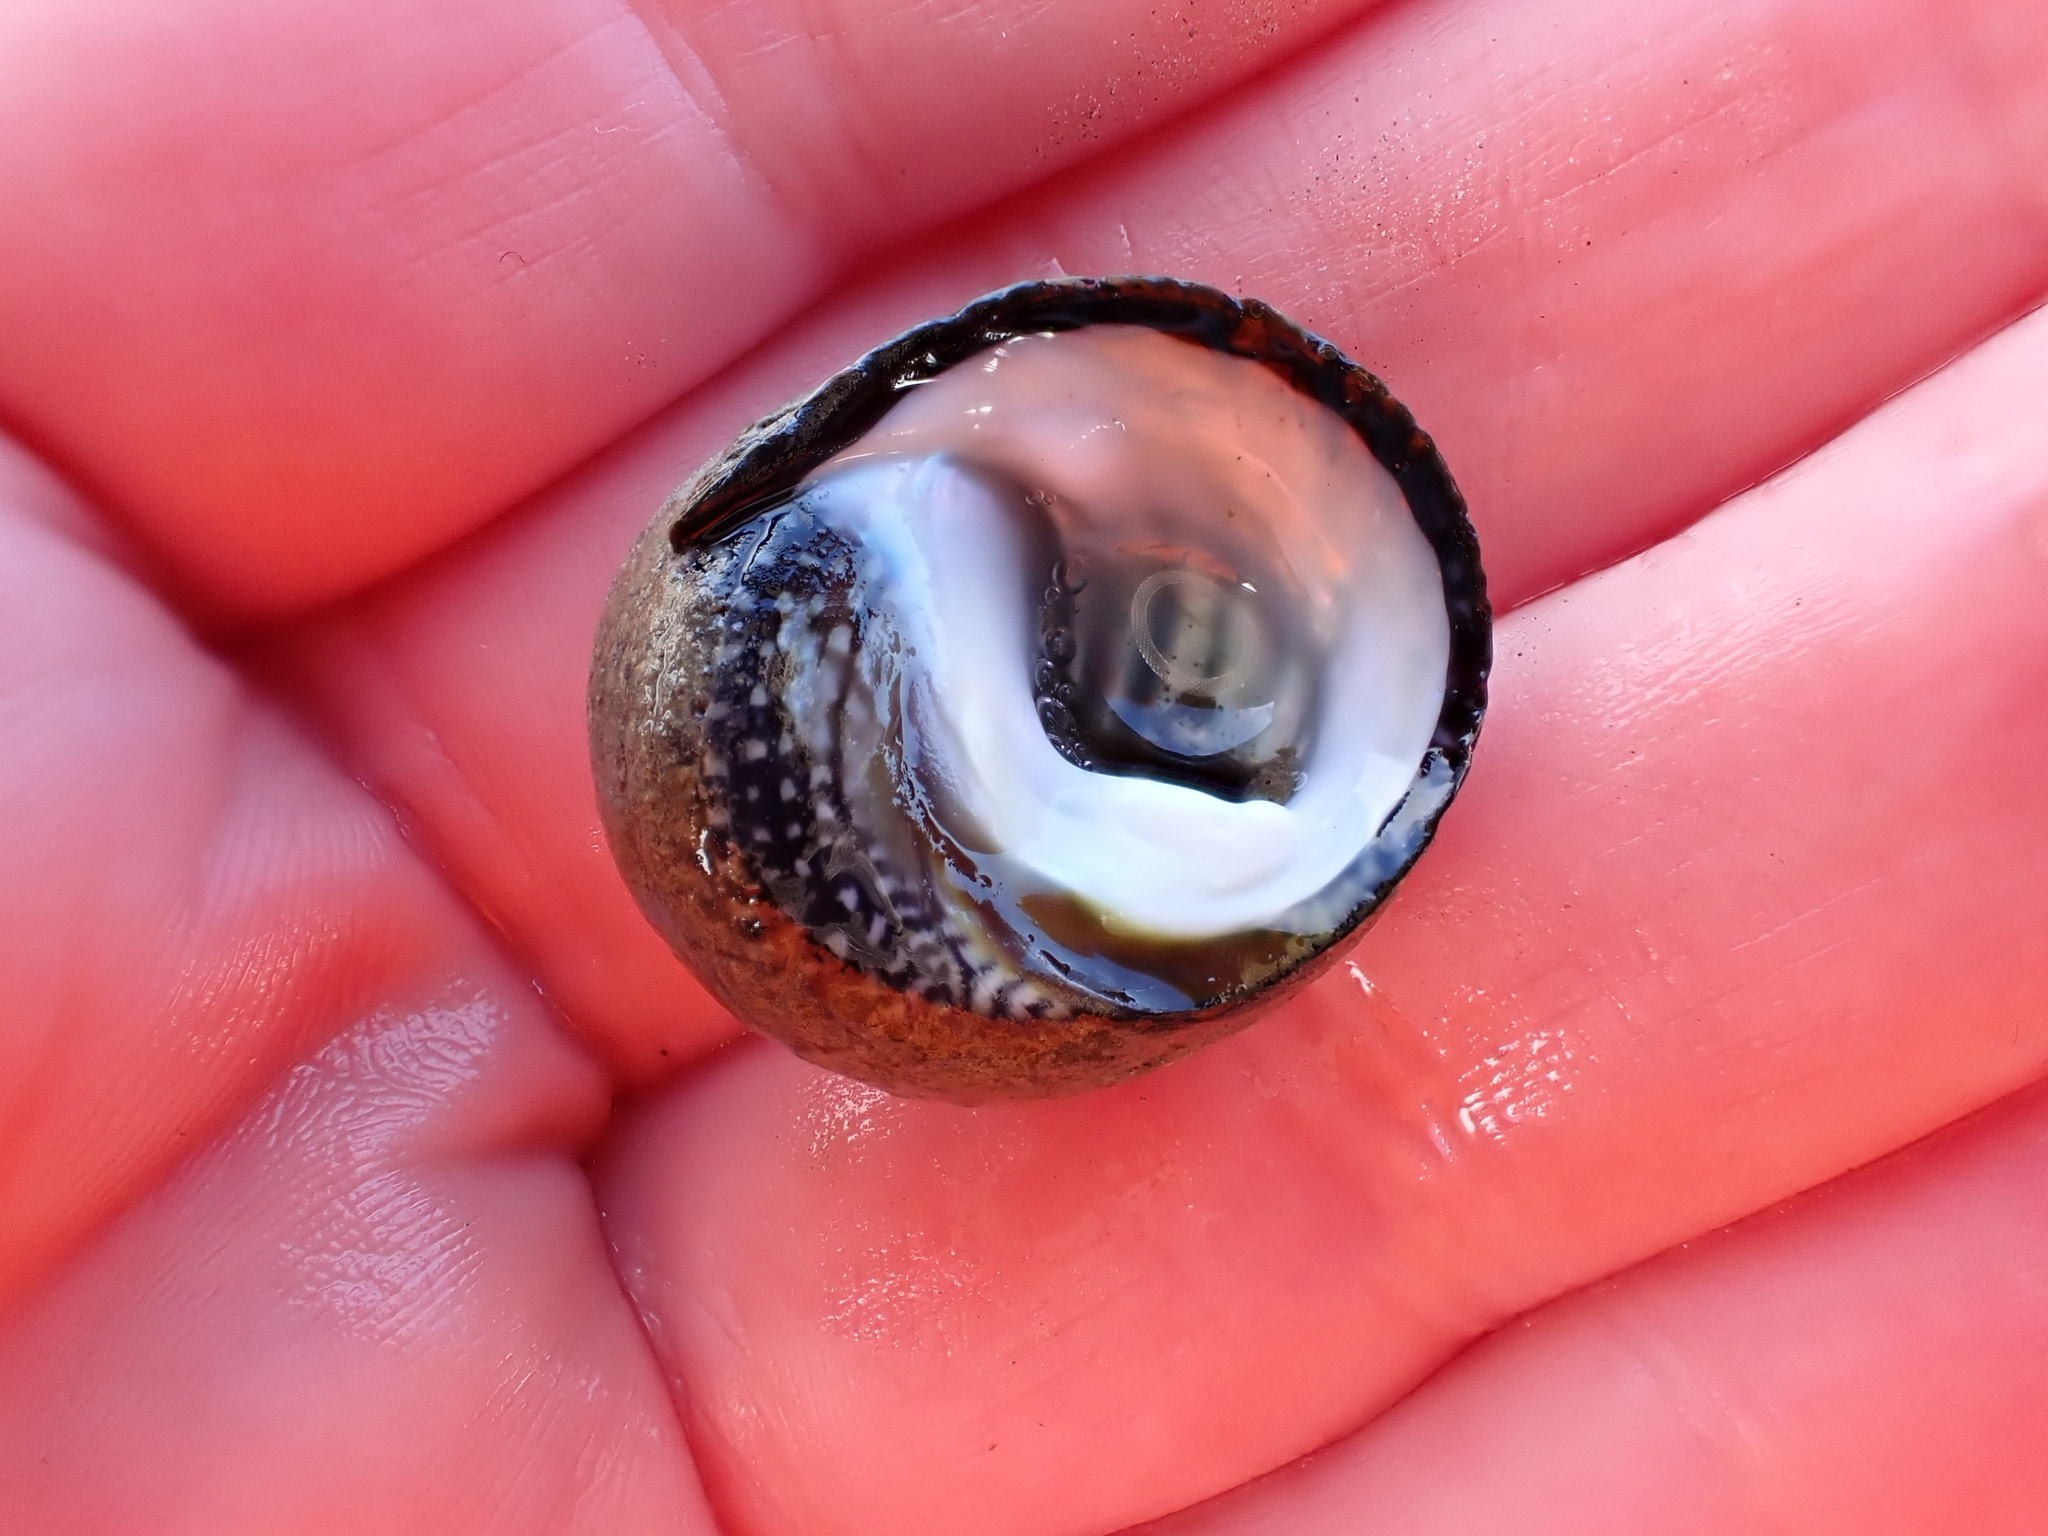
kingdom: Animalia
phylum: Mollusca
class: Gastropoda
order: Trochida
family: Trochidae
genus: Diloma
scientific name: Diloma aethiops
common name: Scorched monodont
